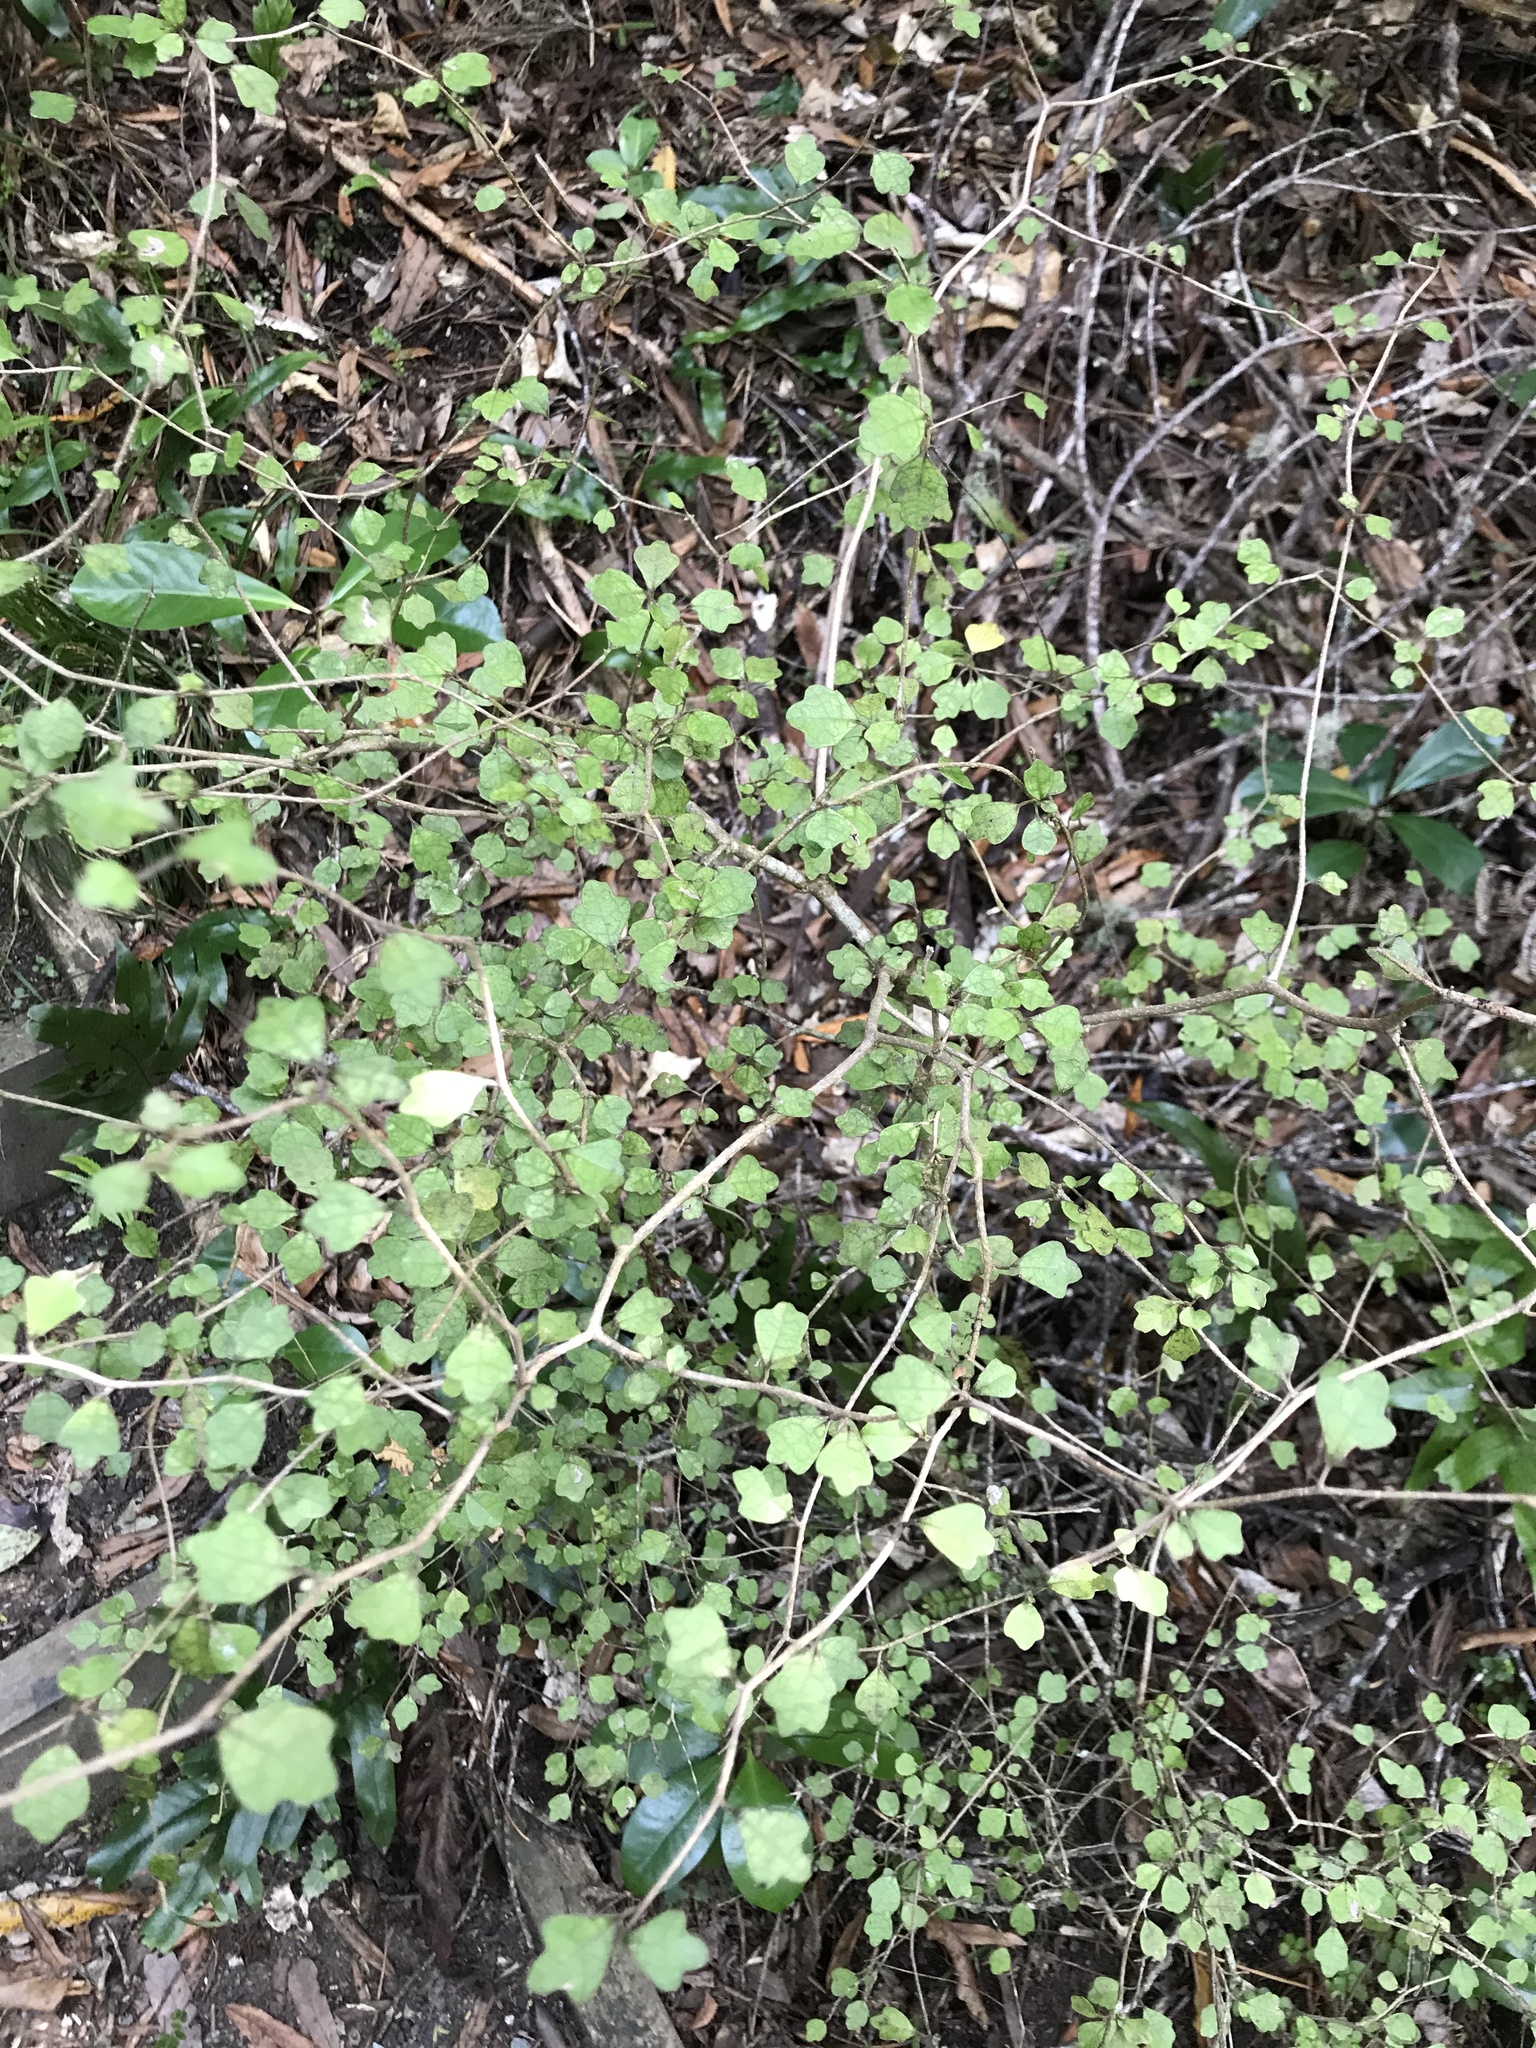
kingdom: Plantae
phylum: Tracheophyta
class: Magnoliopsida
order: Apiales
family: Pennantiaceae
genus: Pennantia
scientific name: Pennantia corymbosa
